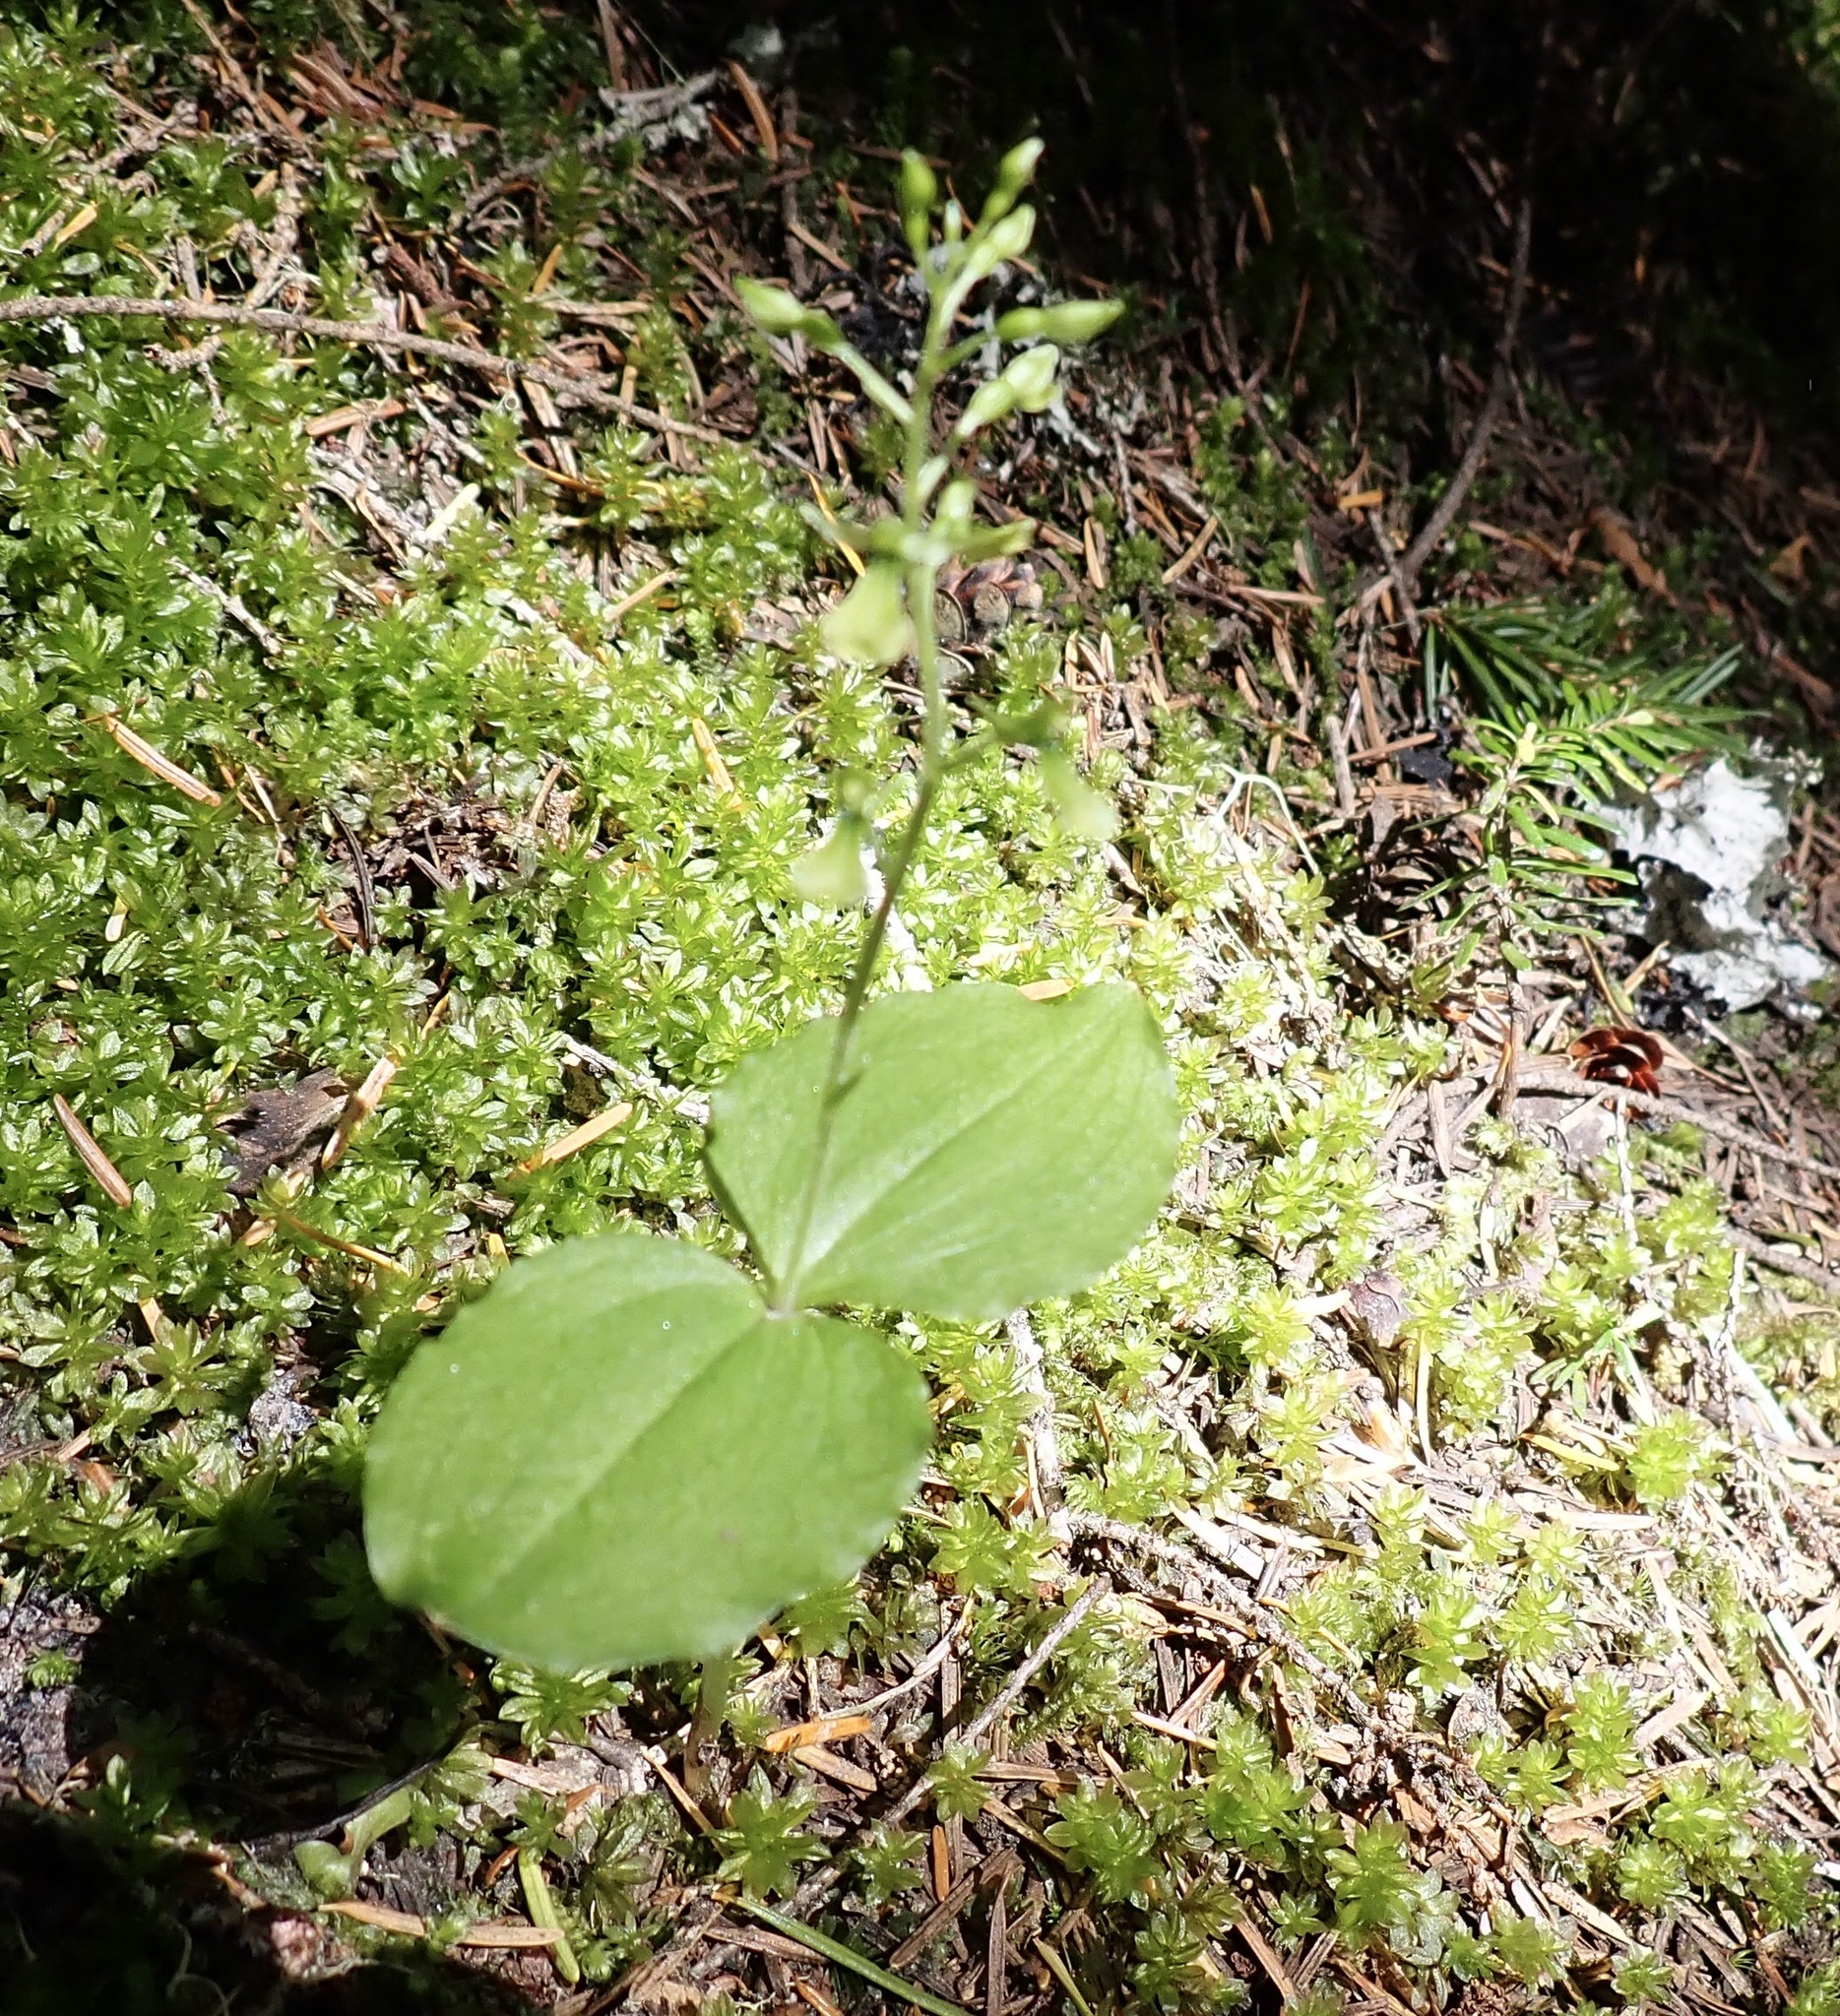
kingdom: Plantae
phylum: Tracheophyta
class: Liliopsida
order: Asparagales
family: Orchidaceae
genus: Neottia
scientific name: Neottia banksiana
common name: Northwestern twayblade
